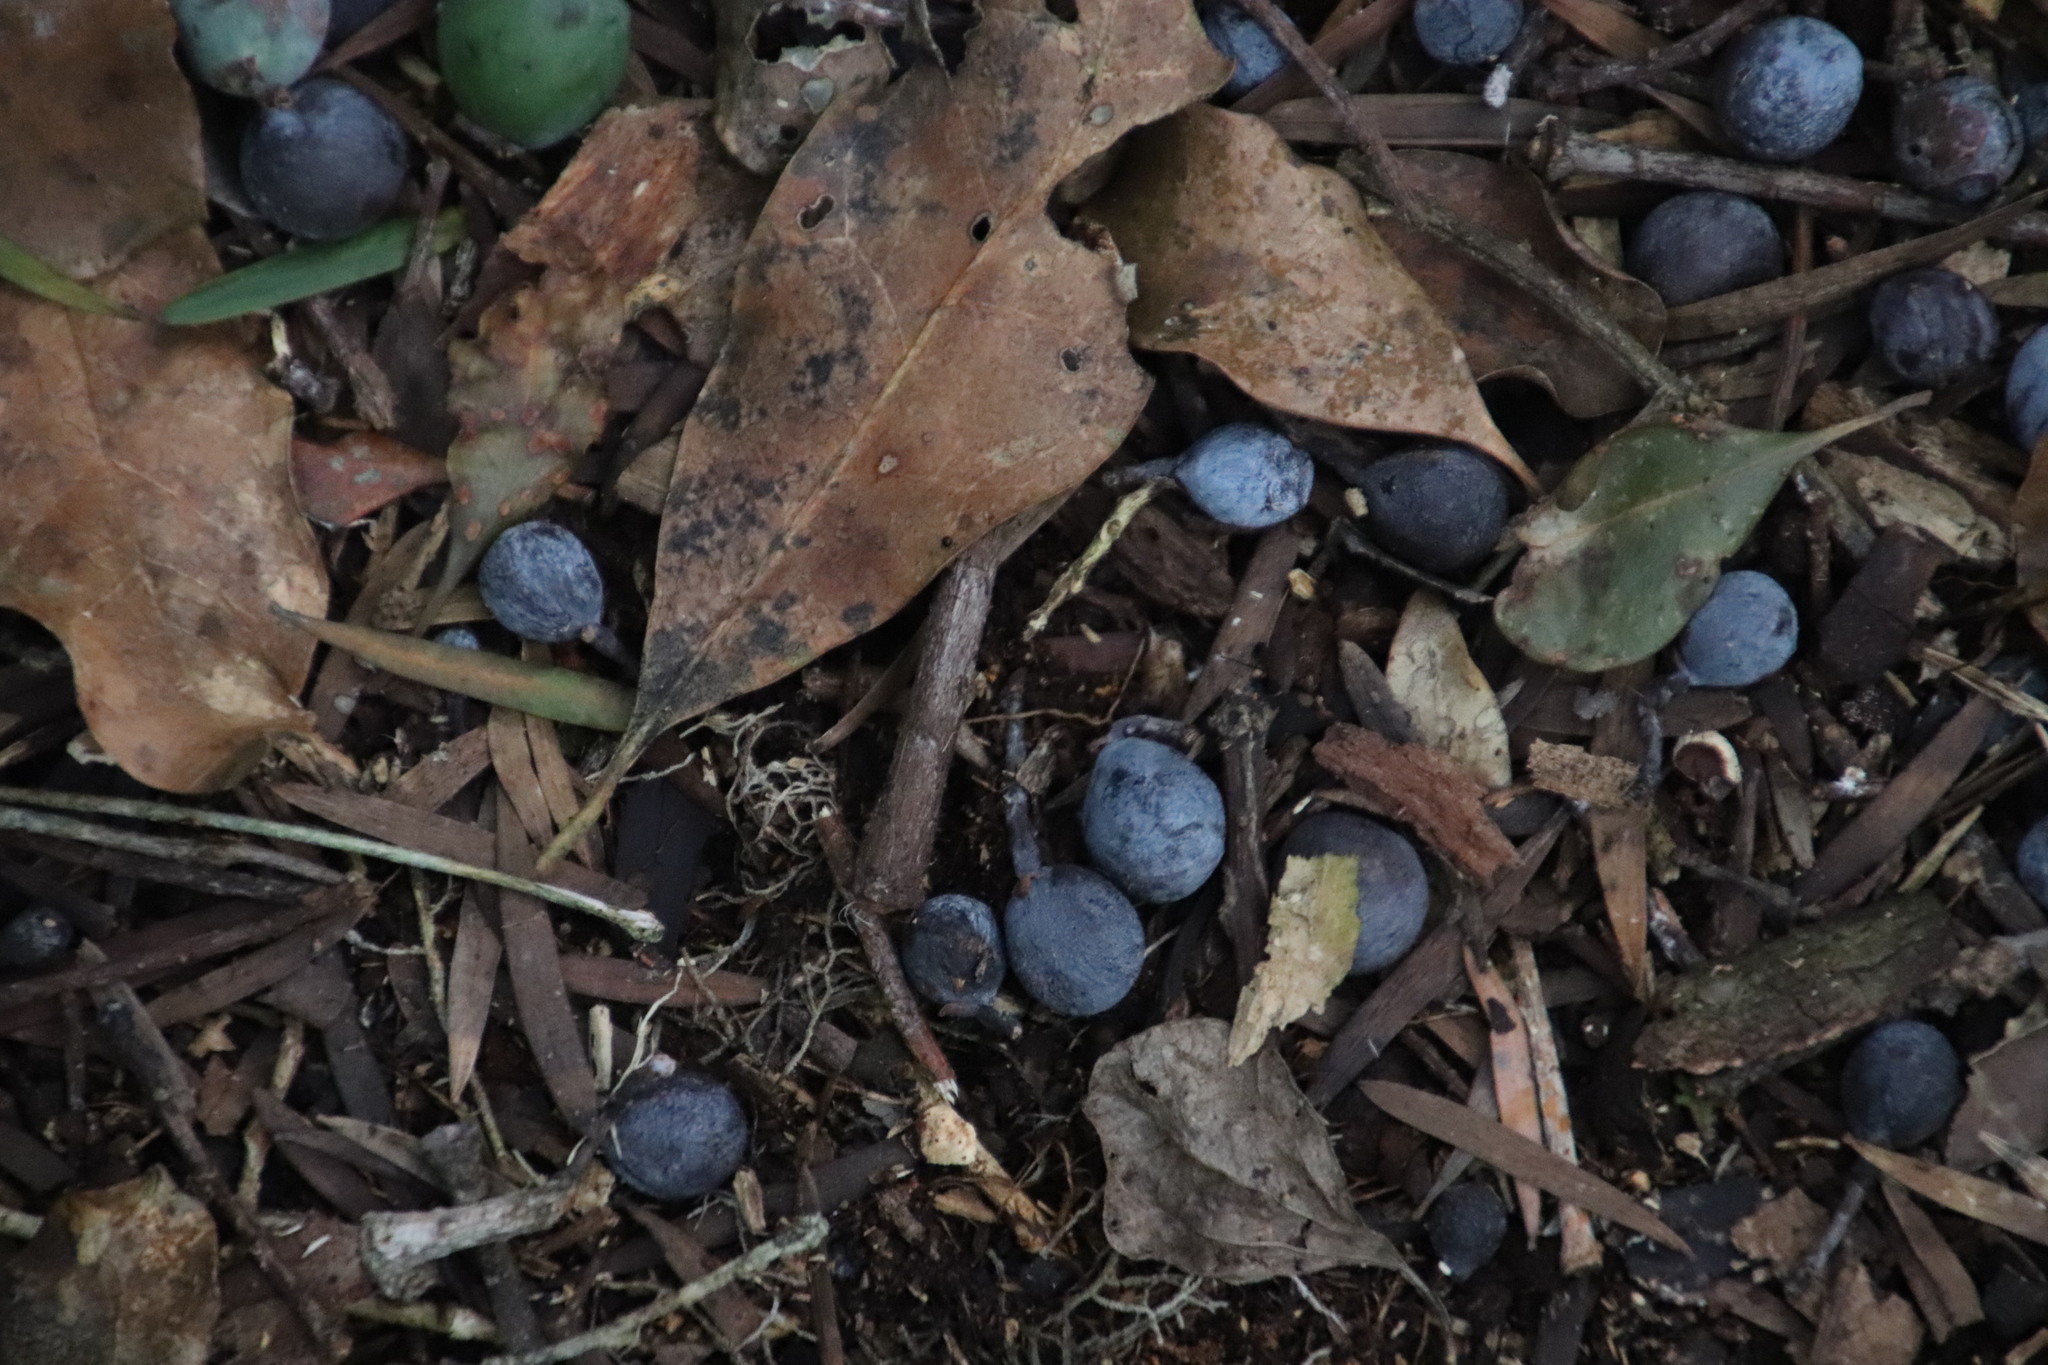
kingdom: Plantae
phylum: Tracheophyta
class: Pinopsida
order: Pinales
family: Podocarpaceae
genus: Podocarpus
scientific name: Podocarpus latifolius
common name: True yellowwood
